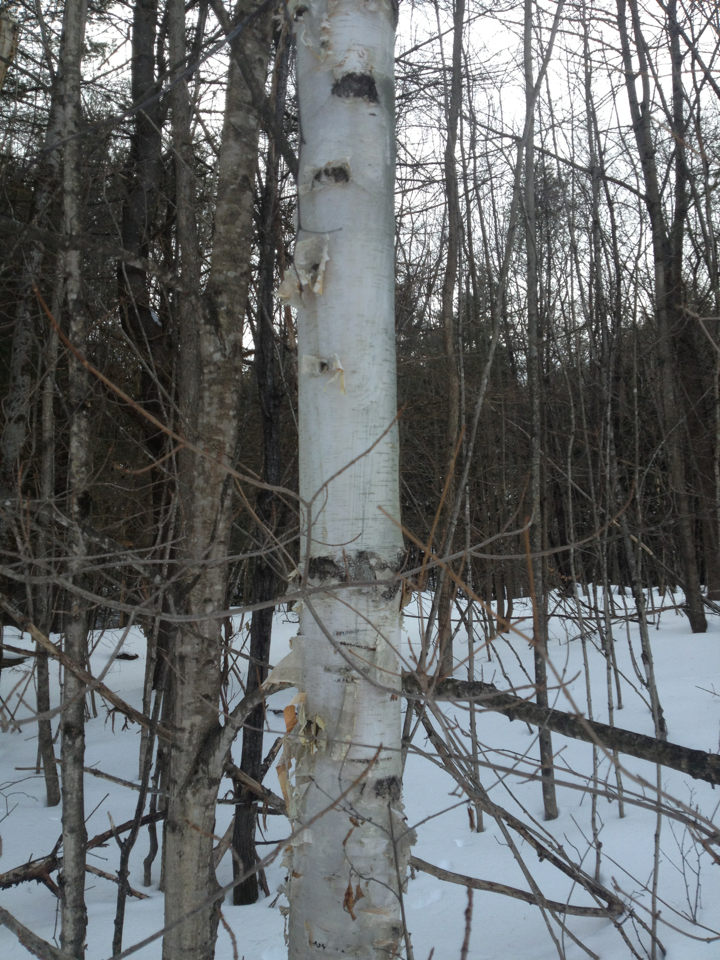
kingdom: Plantae
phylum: Tracheophyta
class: Magnoliopsida
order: Fagales
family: Betulaceae
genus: Betula
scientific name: Betula papyrifera
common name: Paper birch
